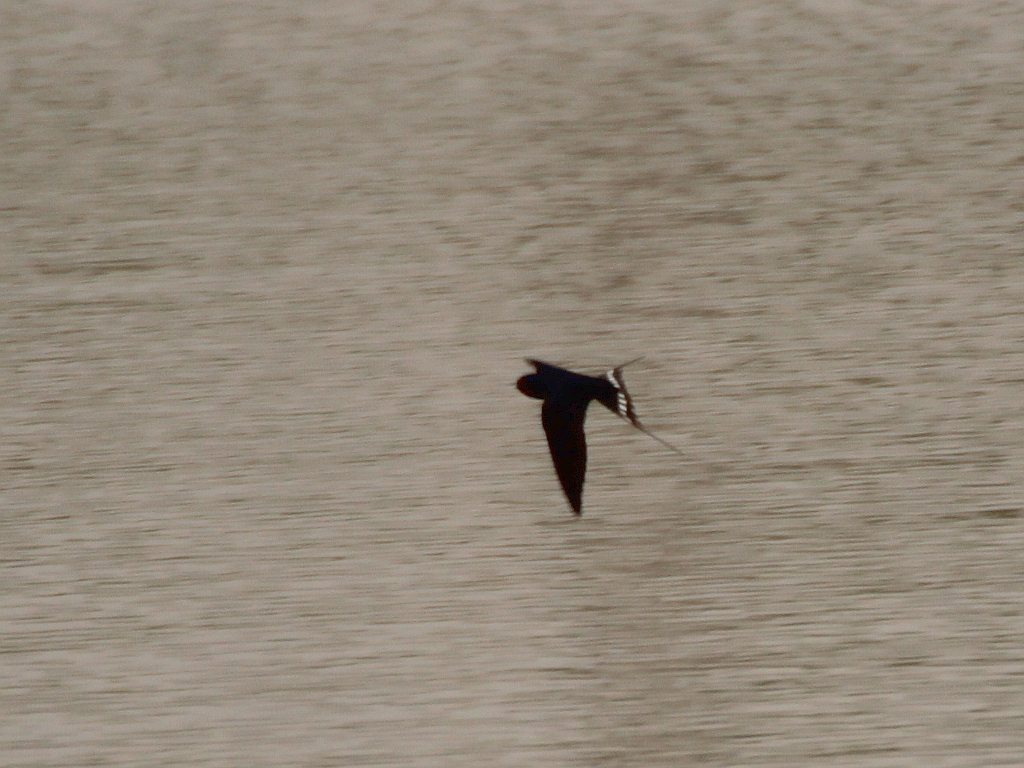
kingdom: Animalia
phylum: Chordata
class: Aves
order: Passeriformes
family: Hirundinidae
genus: Hirundo
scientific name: Hirundo rustica
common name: Barn swallow
